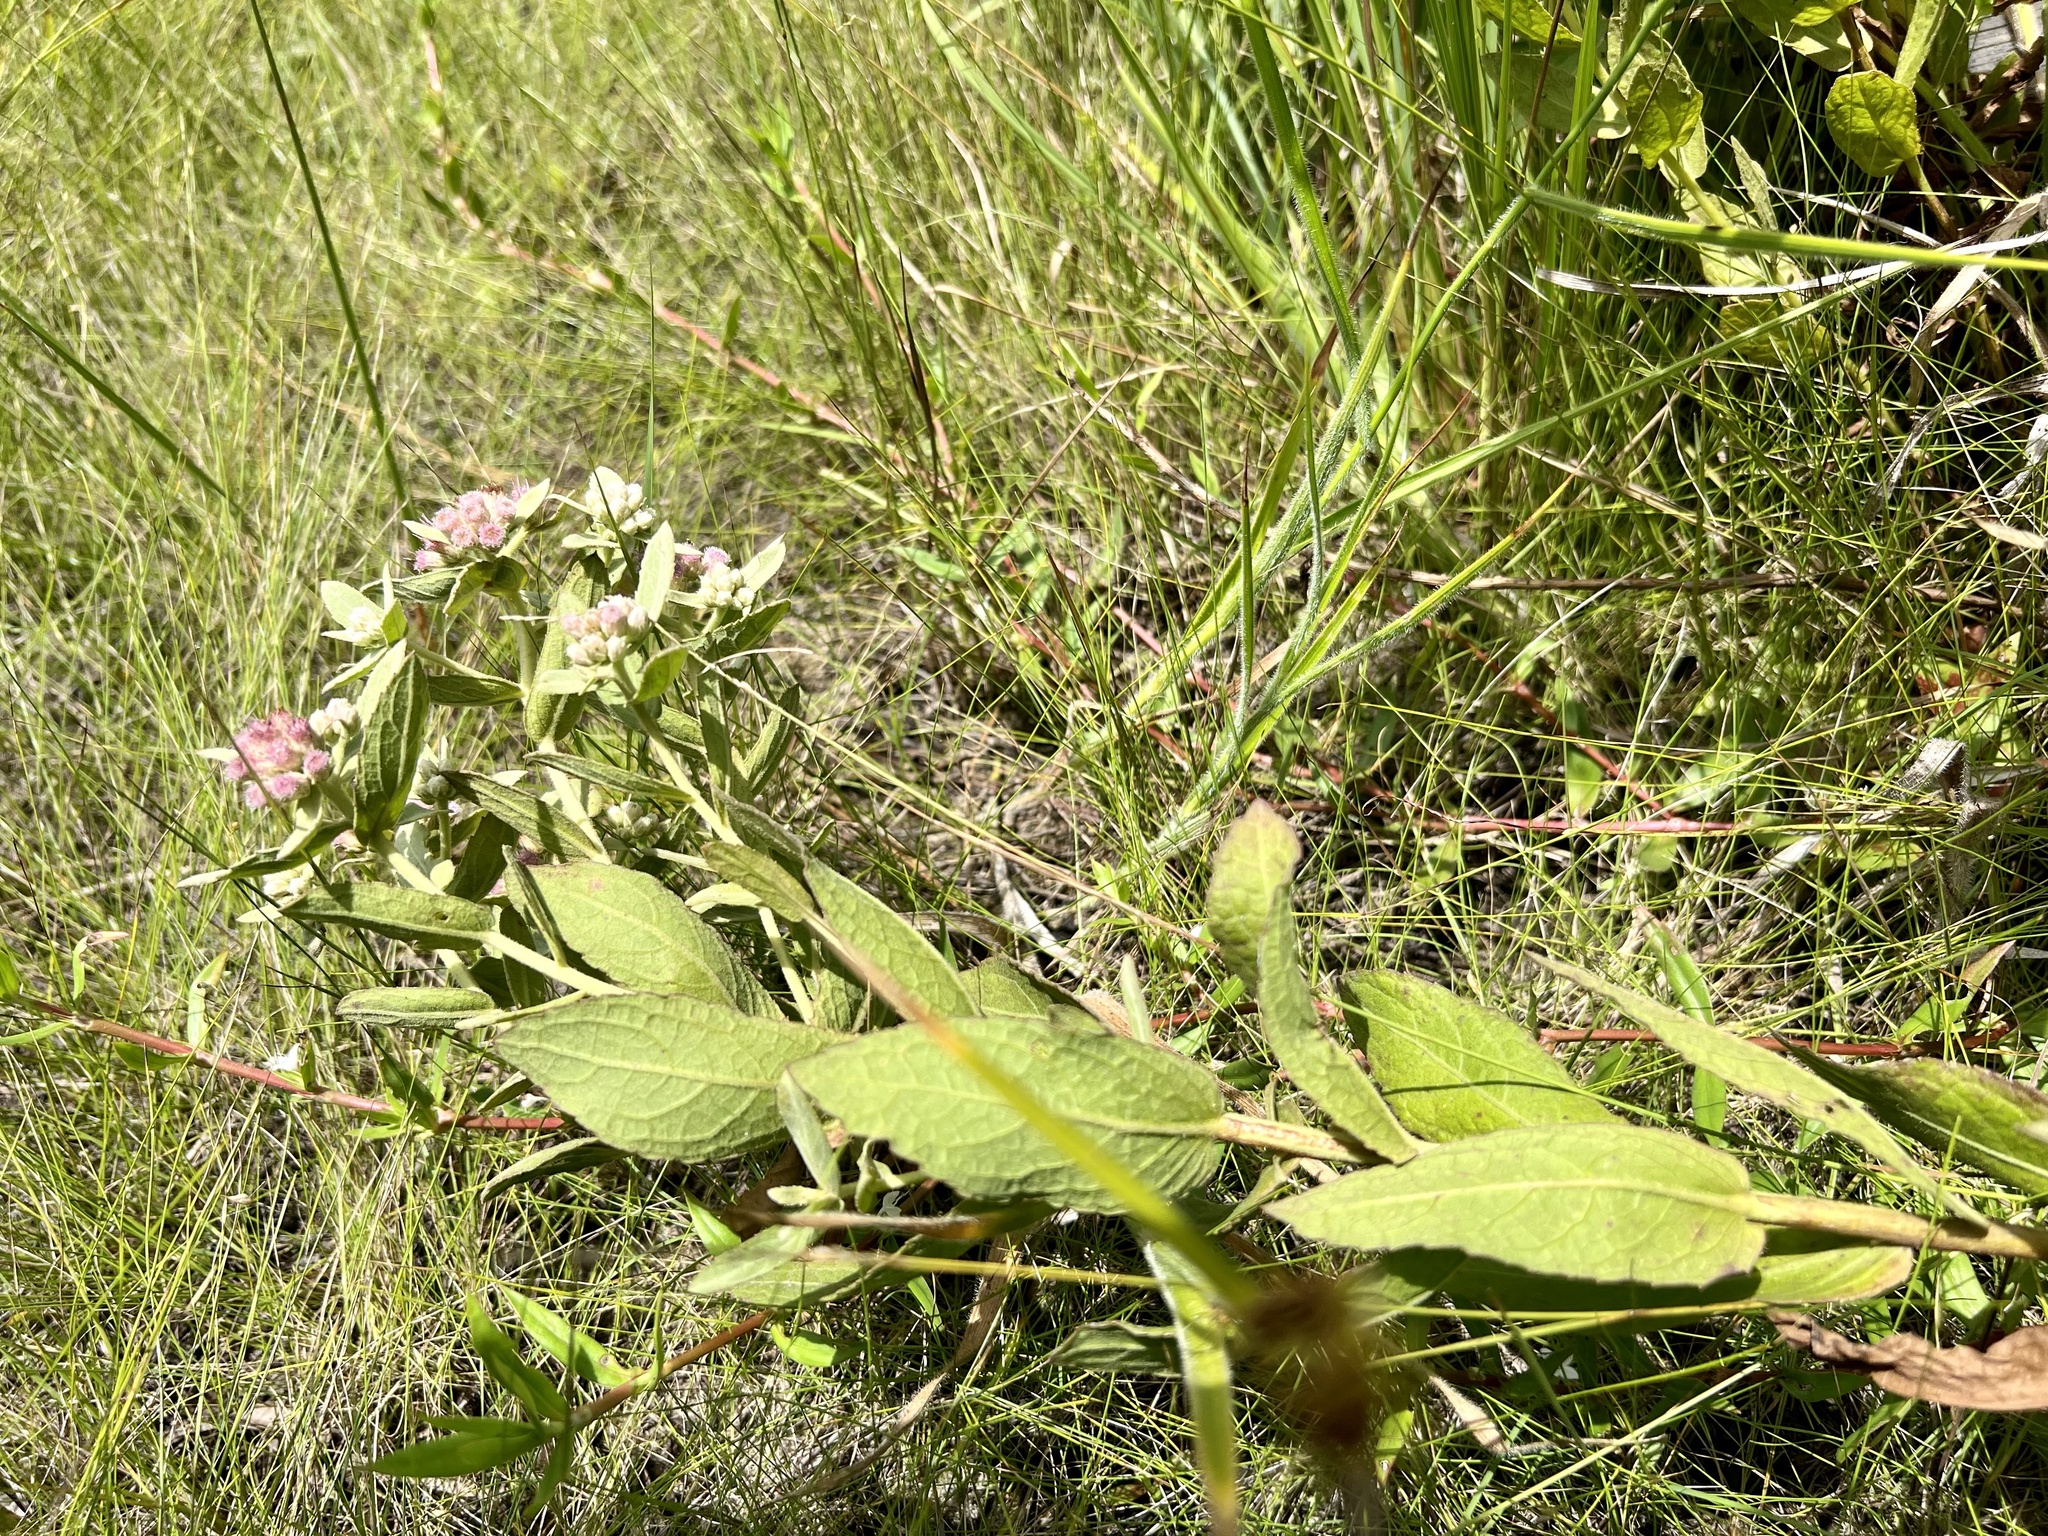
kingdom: Plantae
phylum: Tracheophyta
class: Magnoliopsida
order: Asterales
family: Asteraceae
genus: Pluchea
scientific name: Pluchea baccharis
